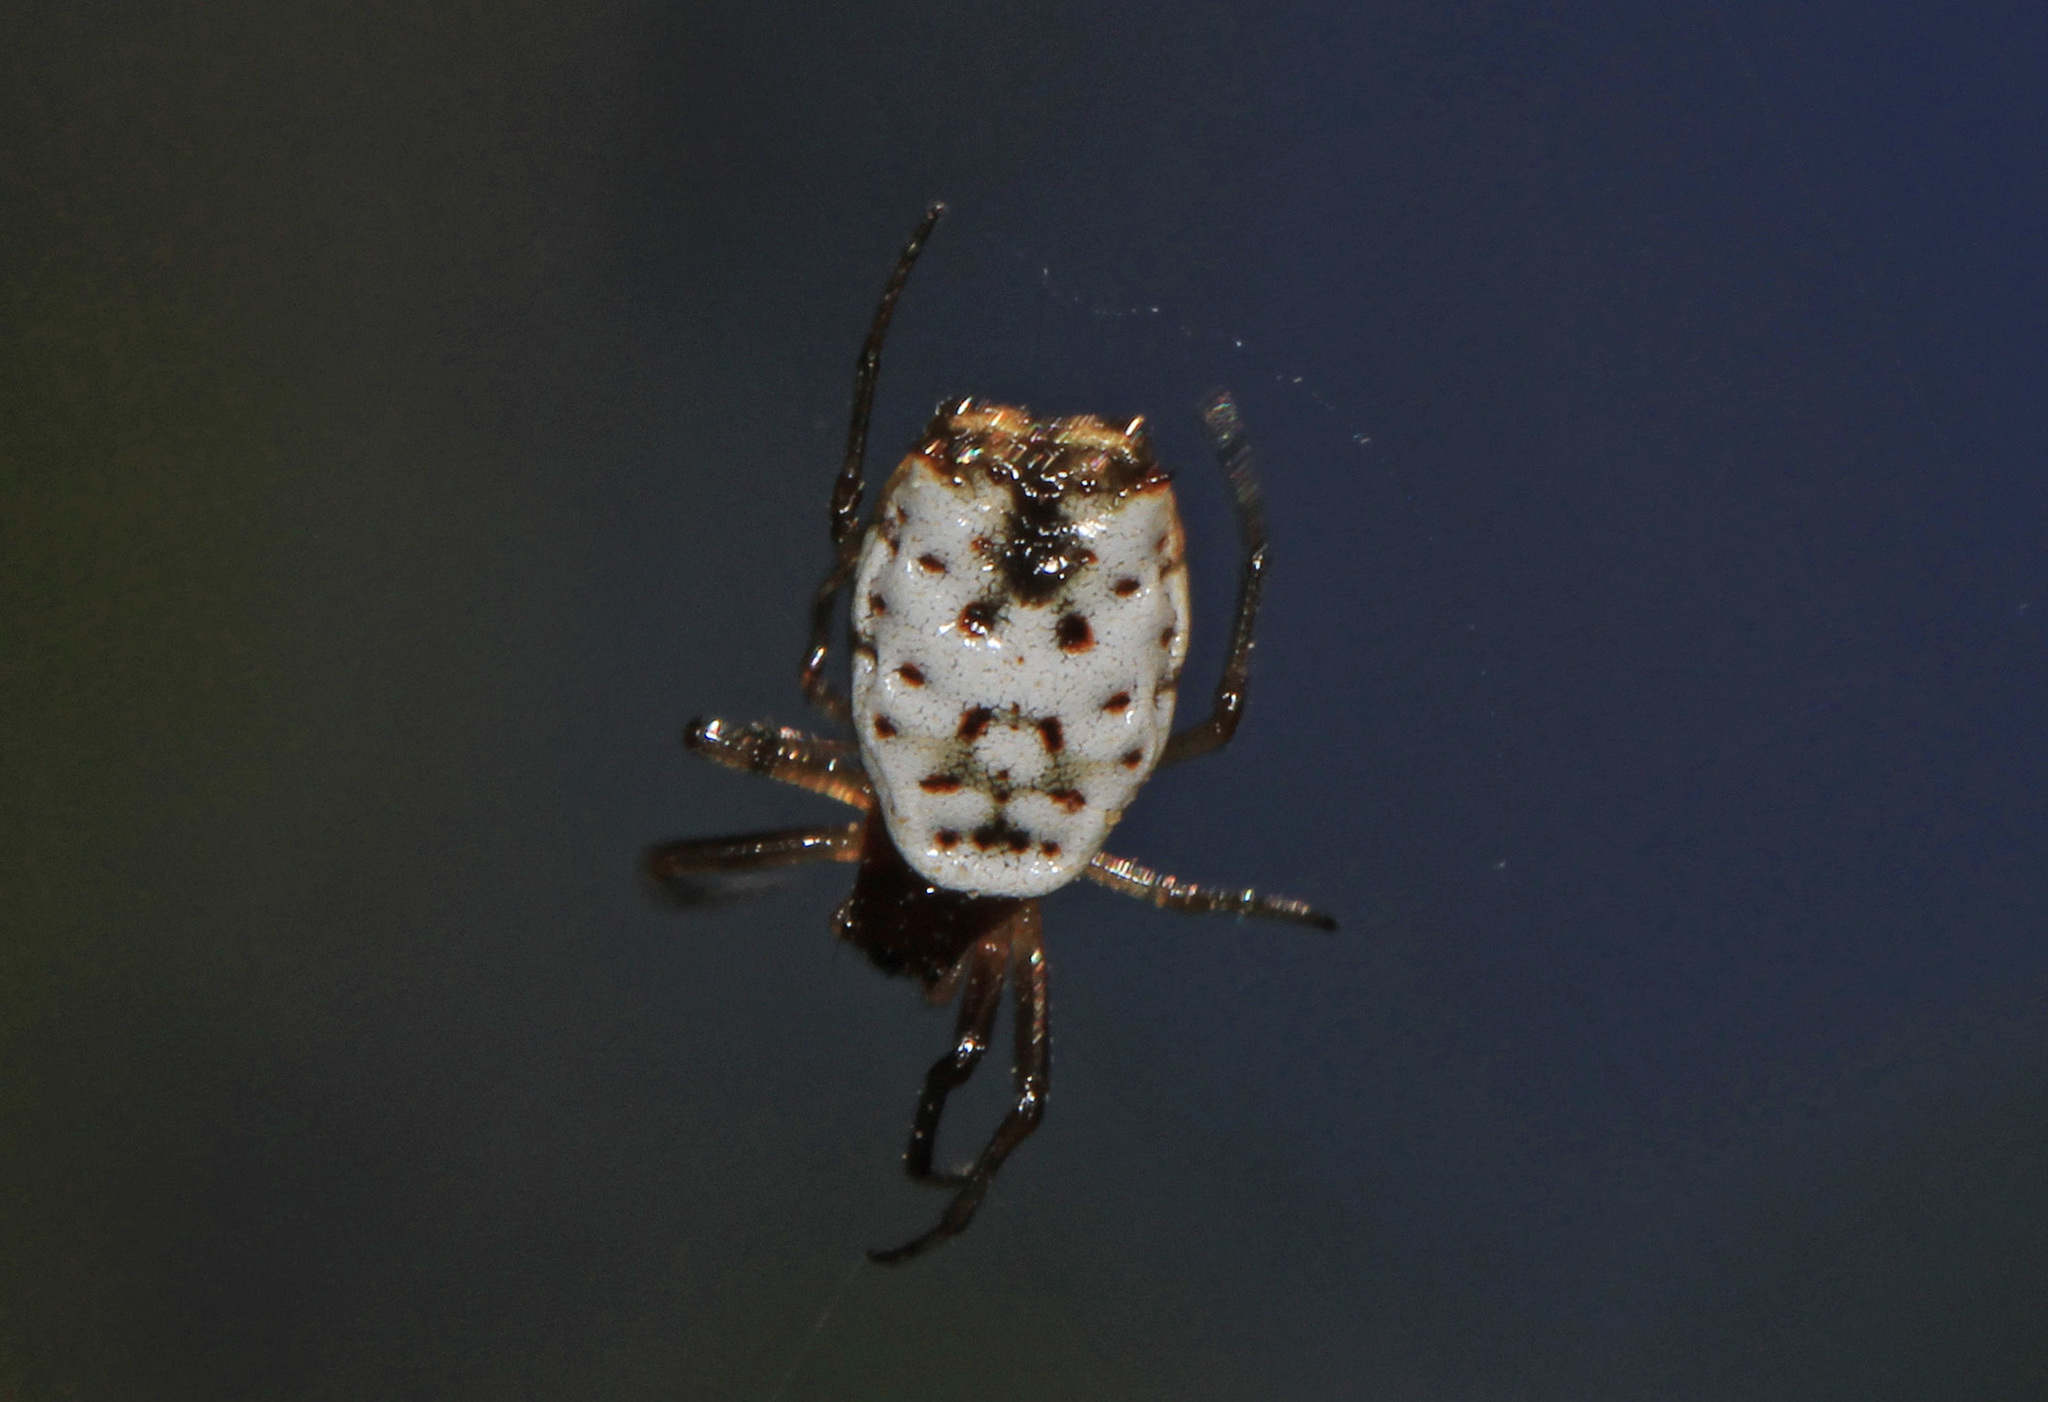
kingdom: Animalia
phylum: Arthropoda
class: Arachnida
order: Araneae
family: Araneidae
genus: Micrathena
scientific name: Micrathena mitrata
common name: Orb weavers
